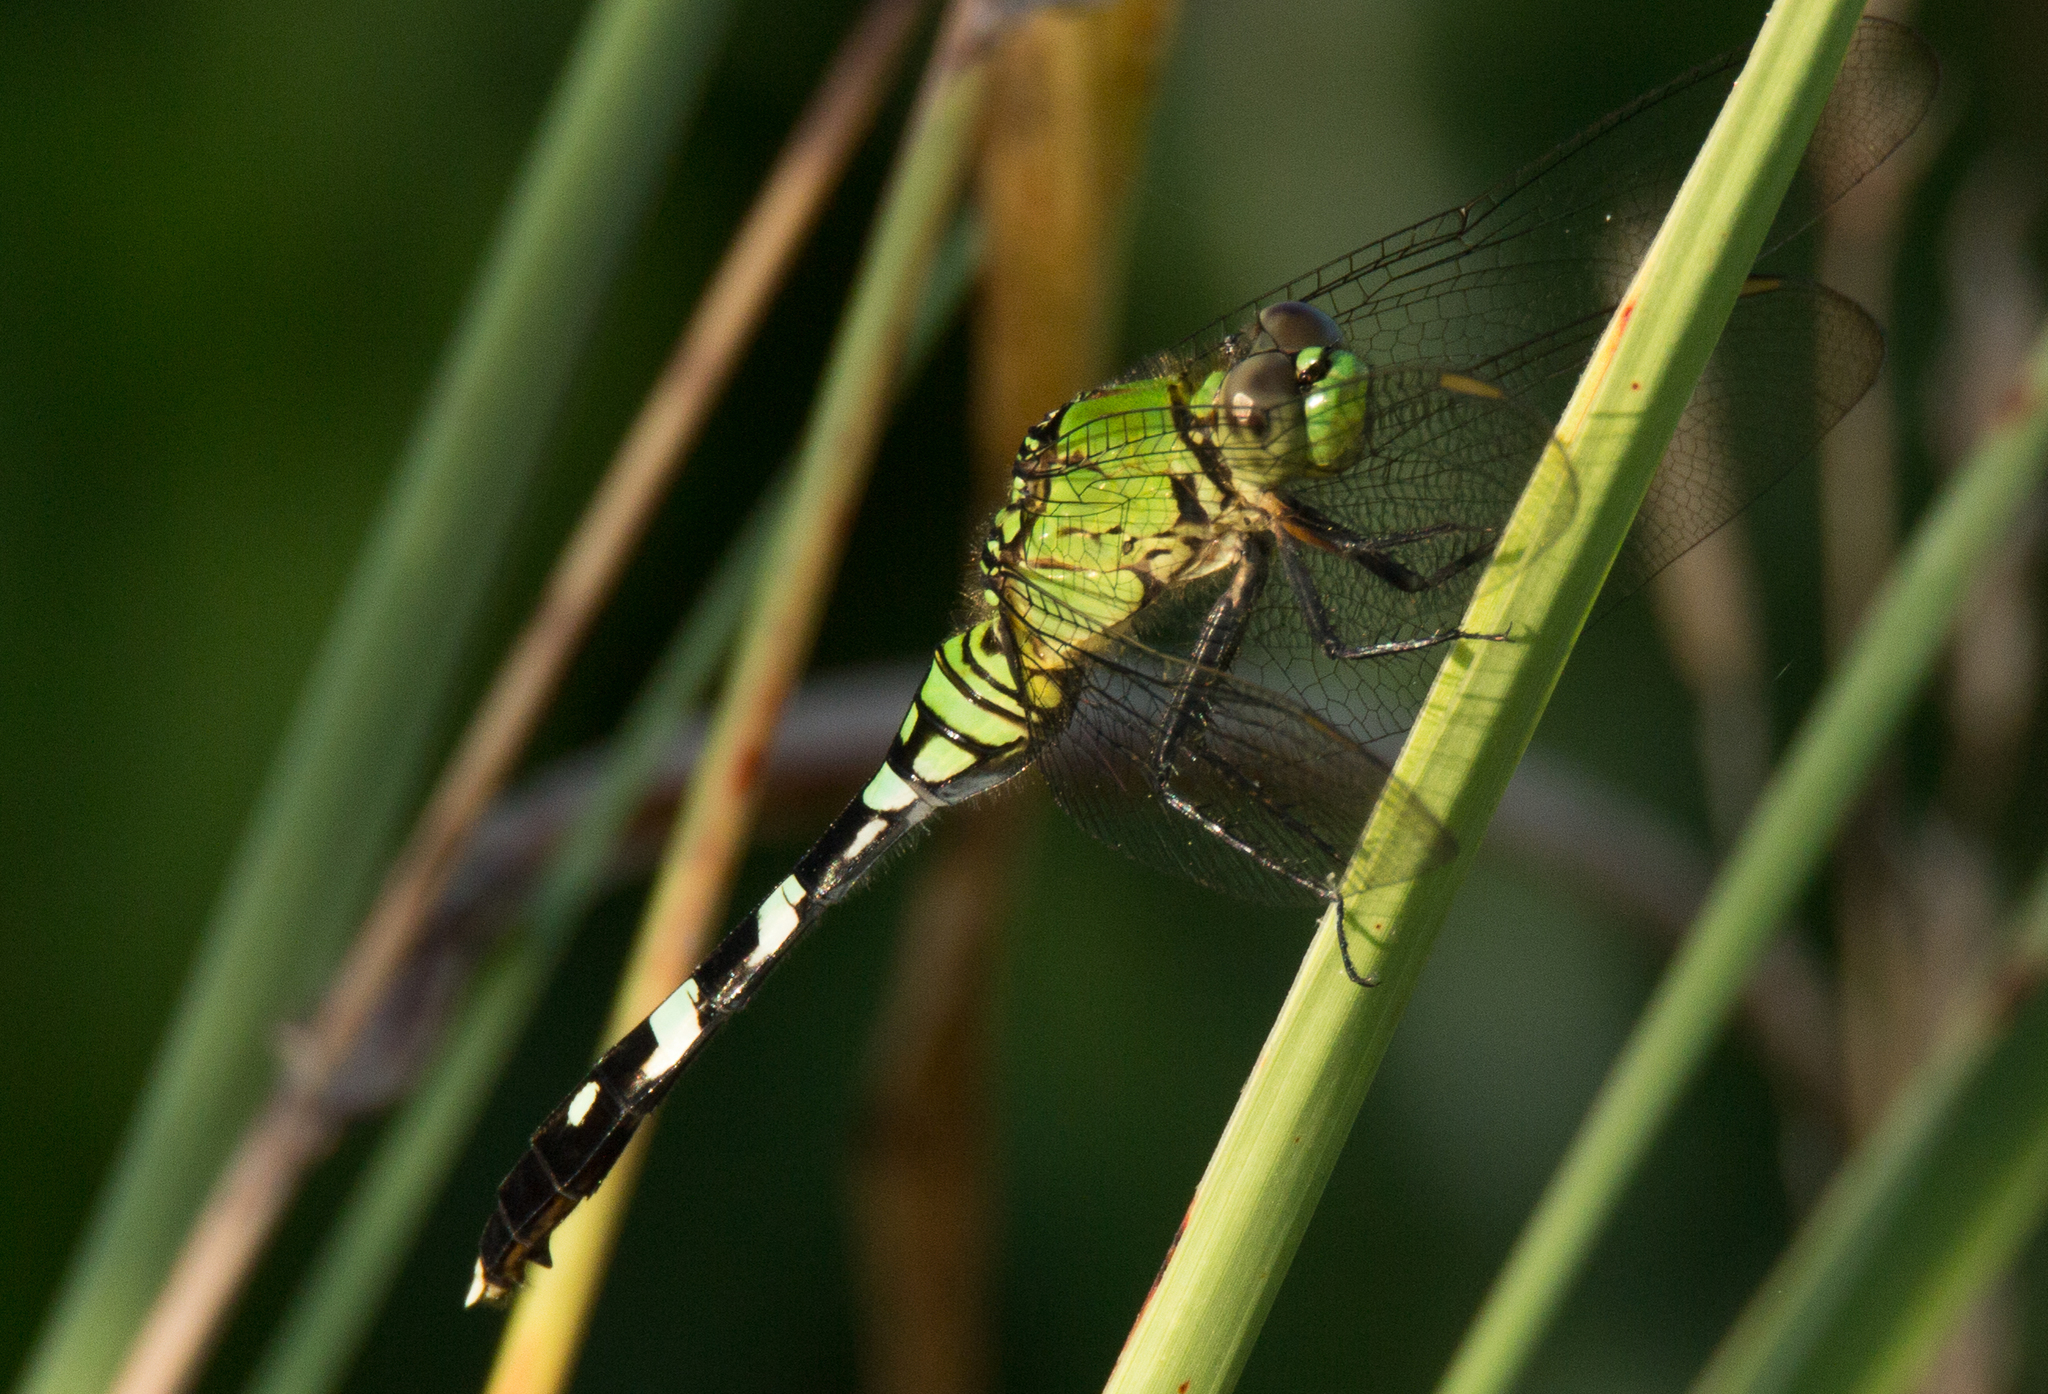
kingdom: Animalia
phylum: Arthropoda
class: Insecta
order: Odonata
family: Libellulidae
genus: Erythemis
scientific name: Erythemis simplicicollis
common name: Eastern pondhawk
